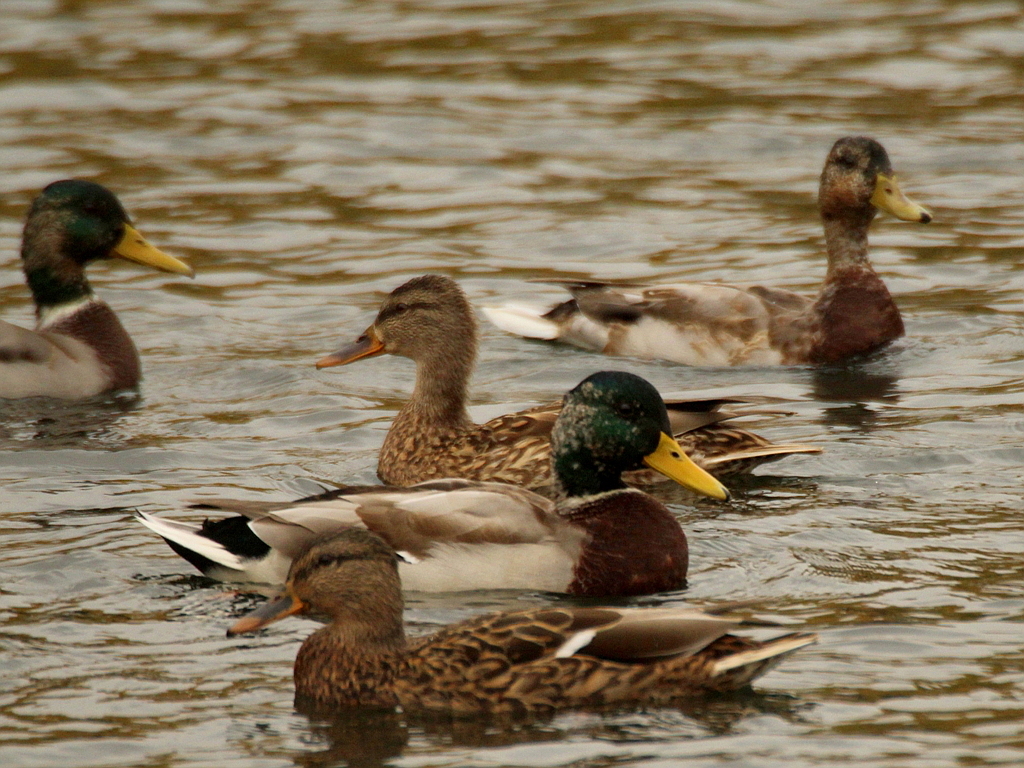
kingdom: Animalia
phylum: Chordata
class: Aves
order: Anseriformes
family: Anatidae
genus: Anas
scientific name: Anas platyrhynchos
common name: Mallard
